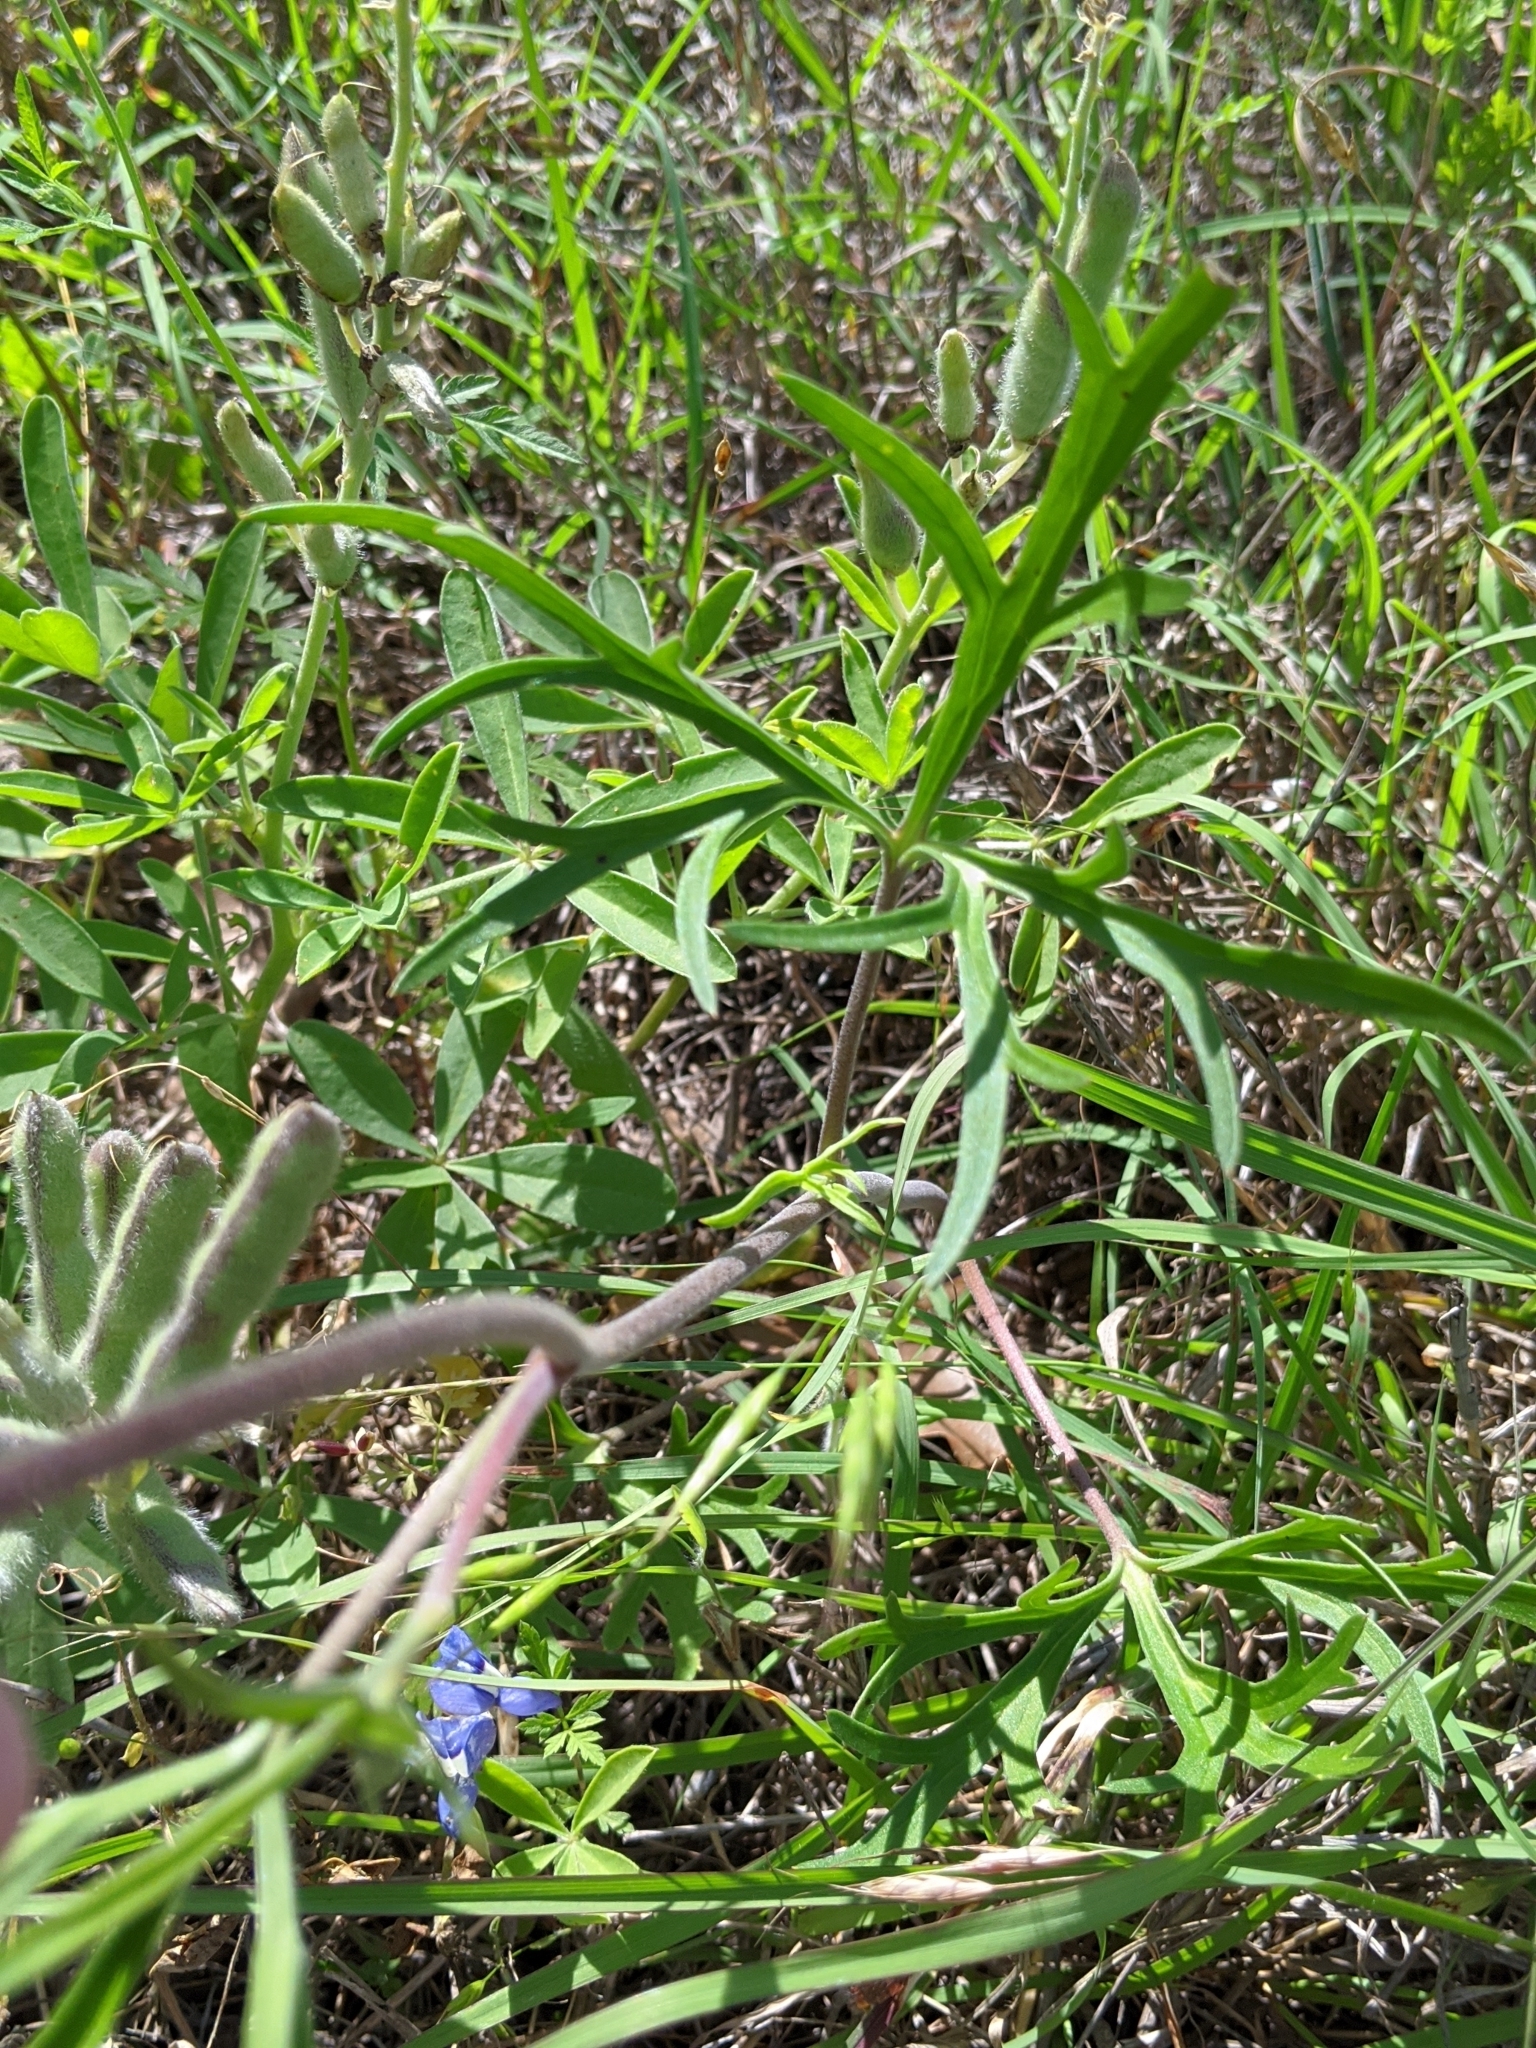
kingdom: Plantae
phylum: Tracheophyta
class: Magnoliopsida
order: Ranunculales
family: Ranunculaceae
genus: Delphinium
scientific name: Delphinium carolinianum
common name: Carolina larkspur
